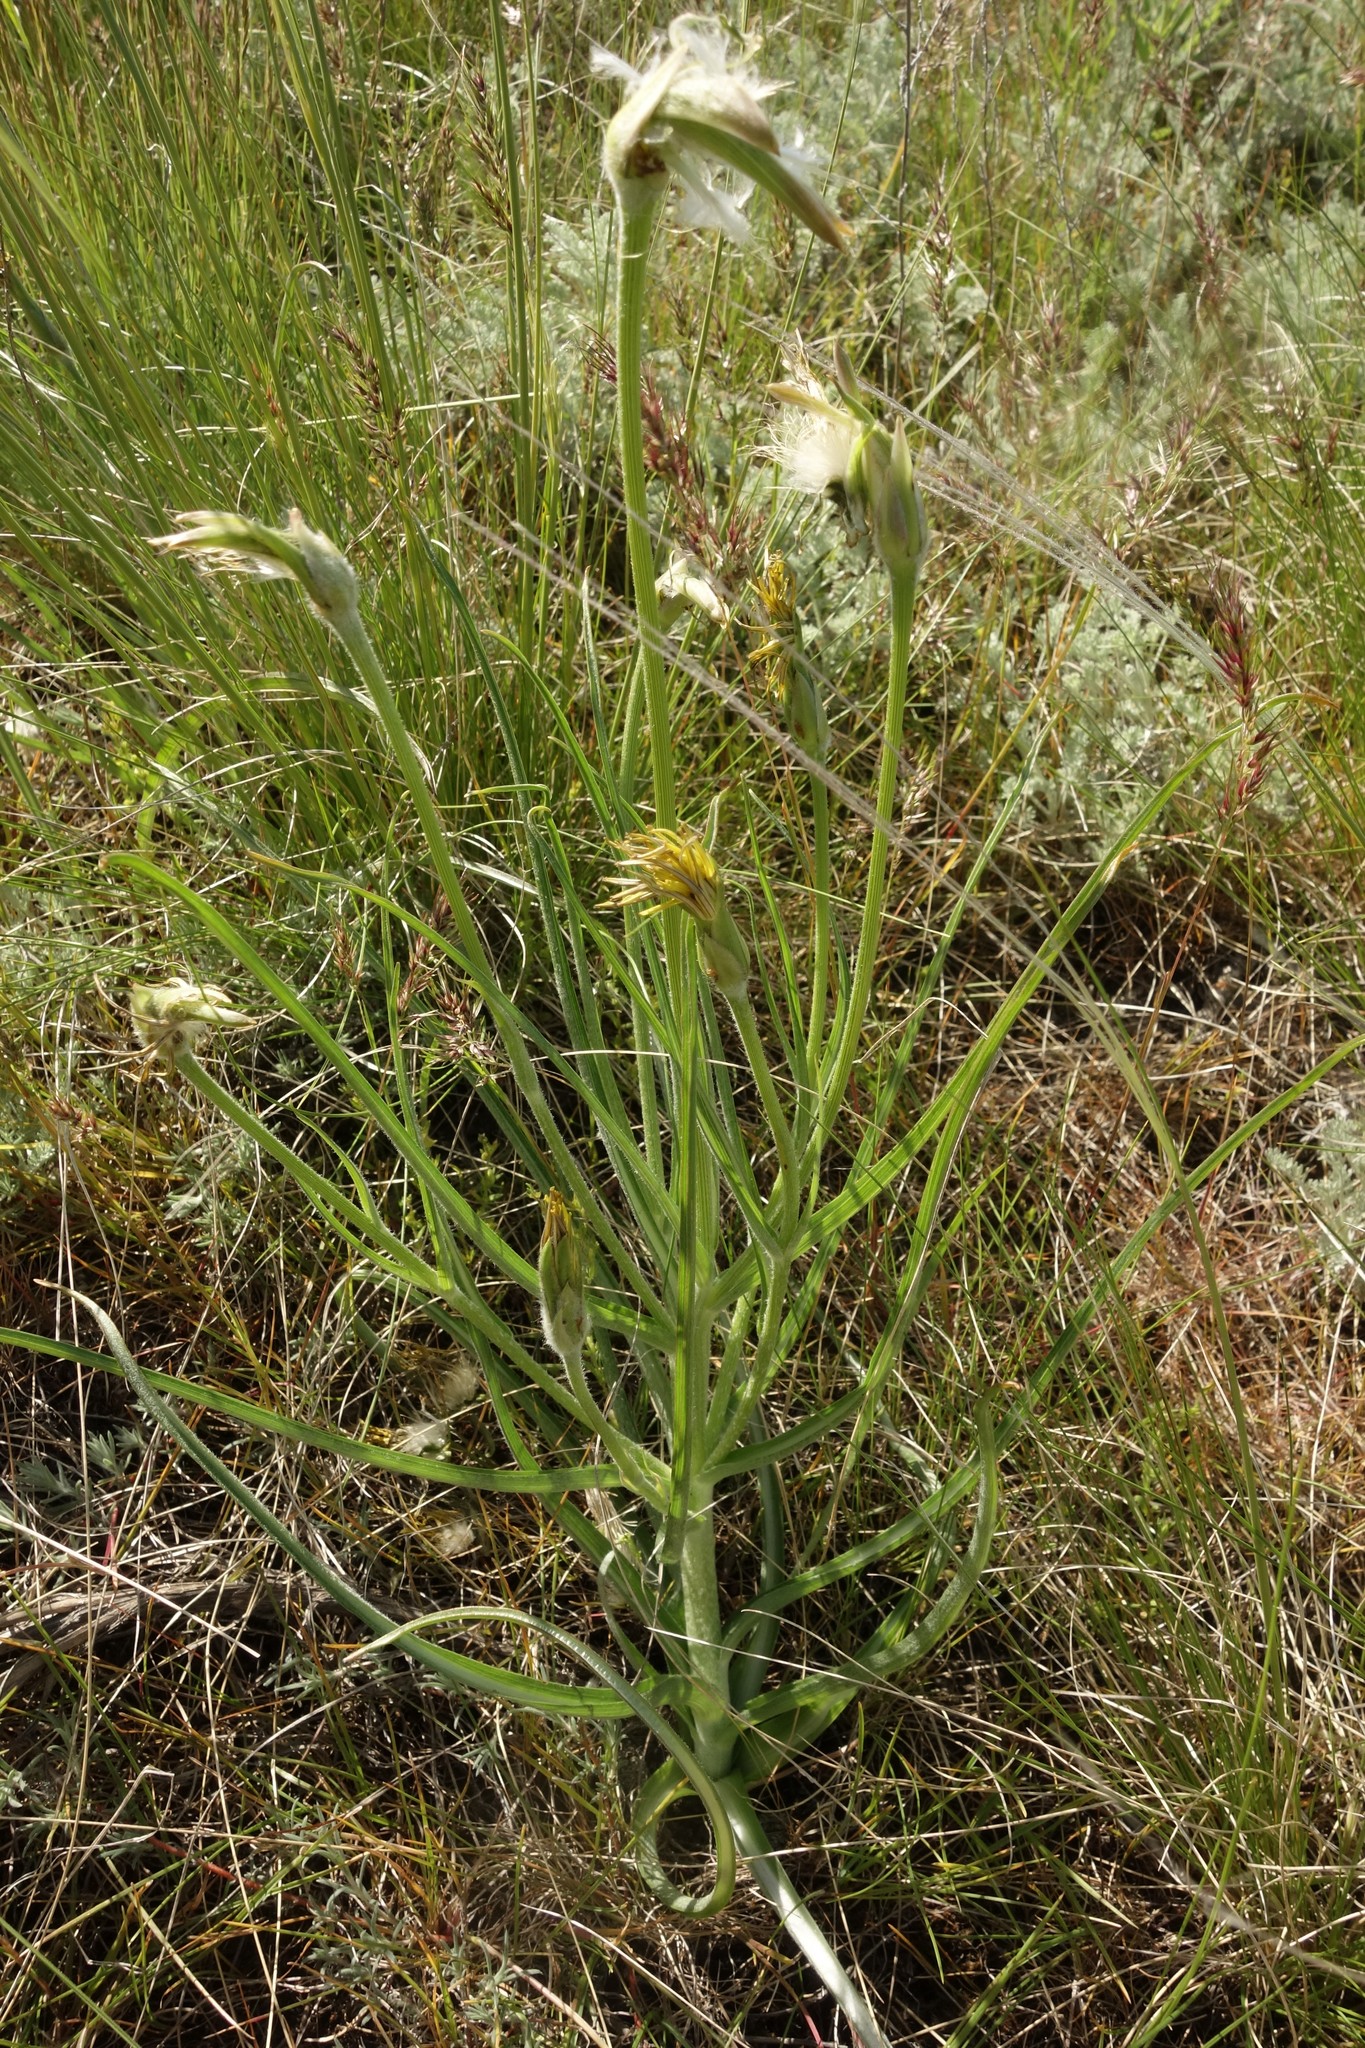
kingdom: Plantae
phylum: Tracheophyta
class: Magnoliopsida
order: Asterales
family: Asteraceae
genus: Candollea
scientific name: Candollea mollis
